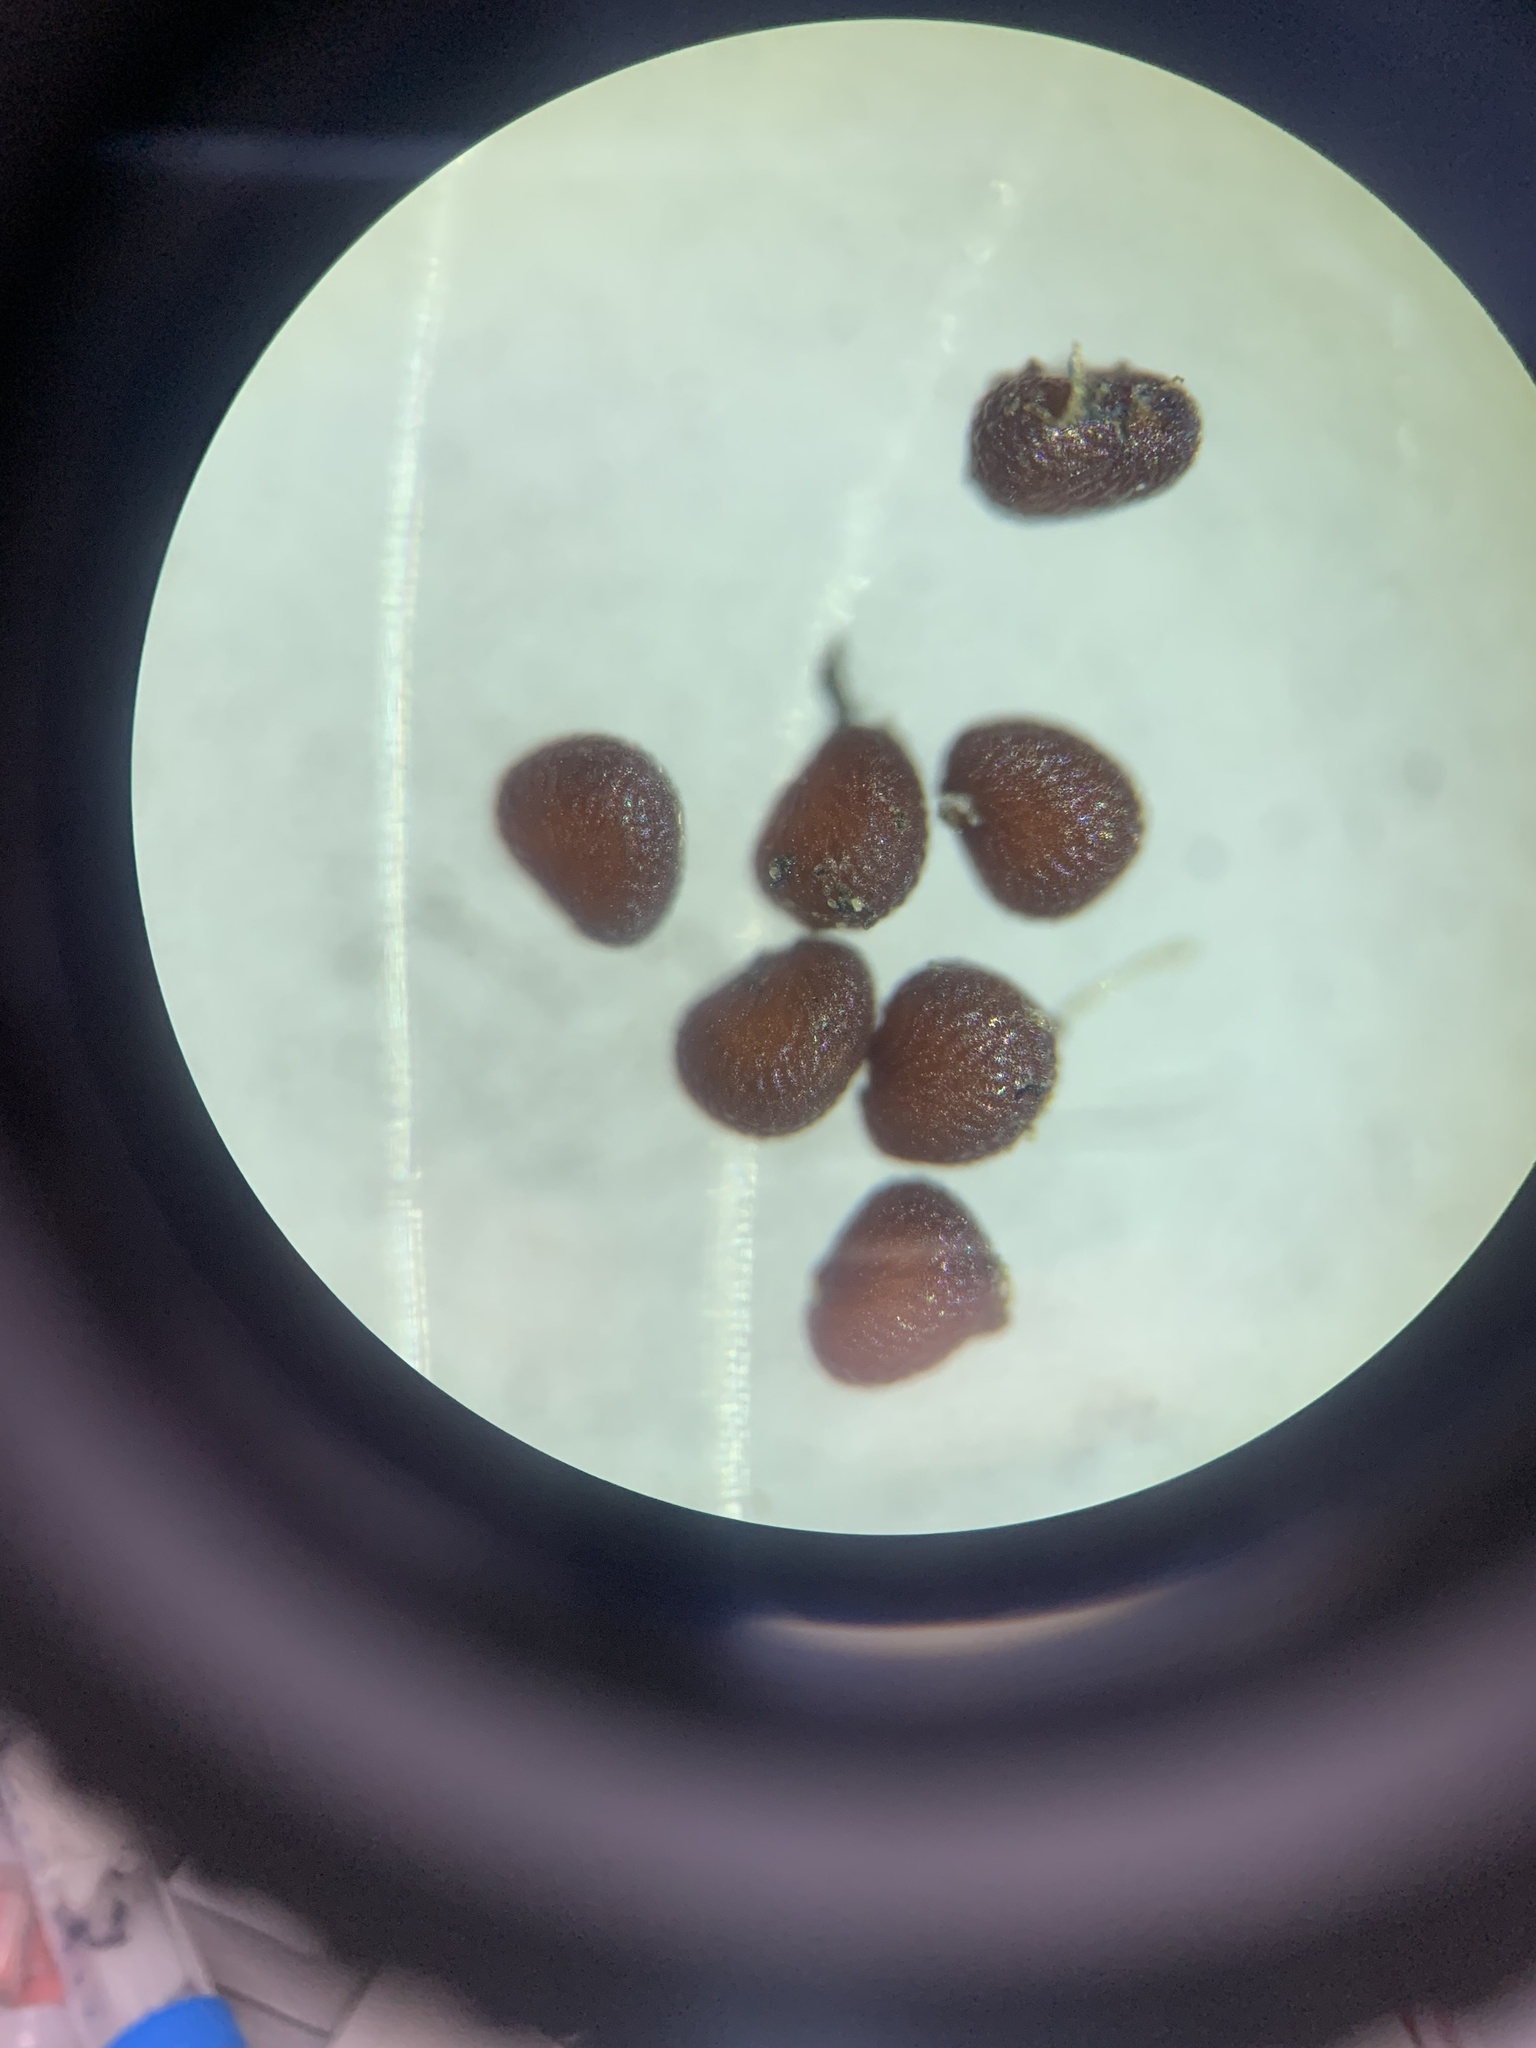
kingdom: Plantae
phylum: Tracheophyta
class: Magnoliopsida
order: Caryophyllales
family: Caryophyllaceae
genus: Sagina
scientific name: Sagina maxima
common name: Coastal pearlwort
